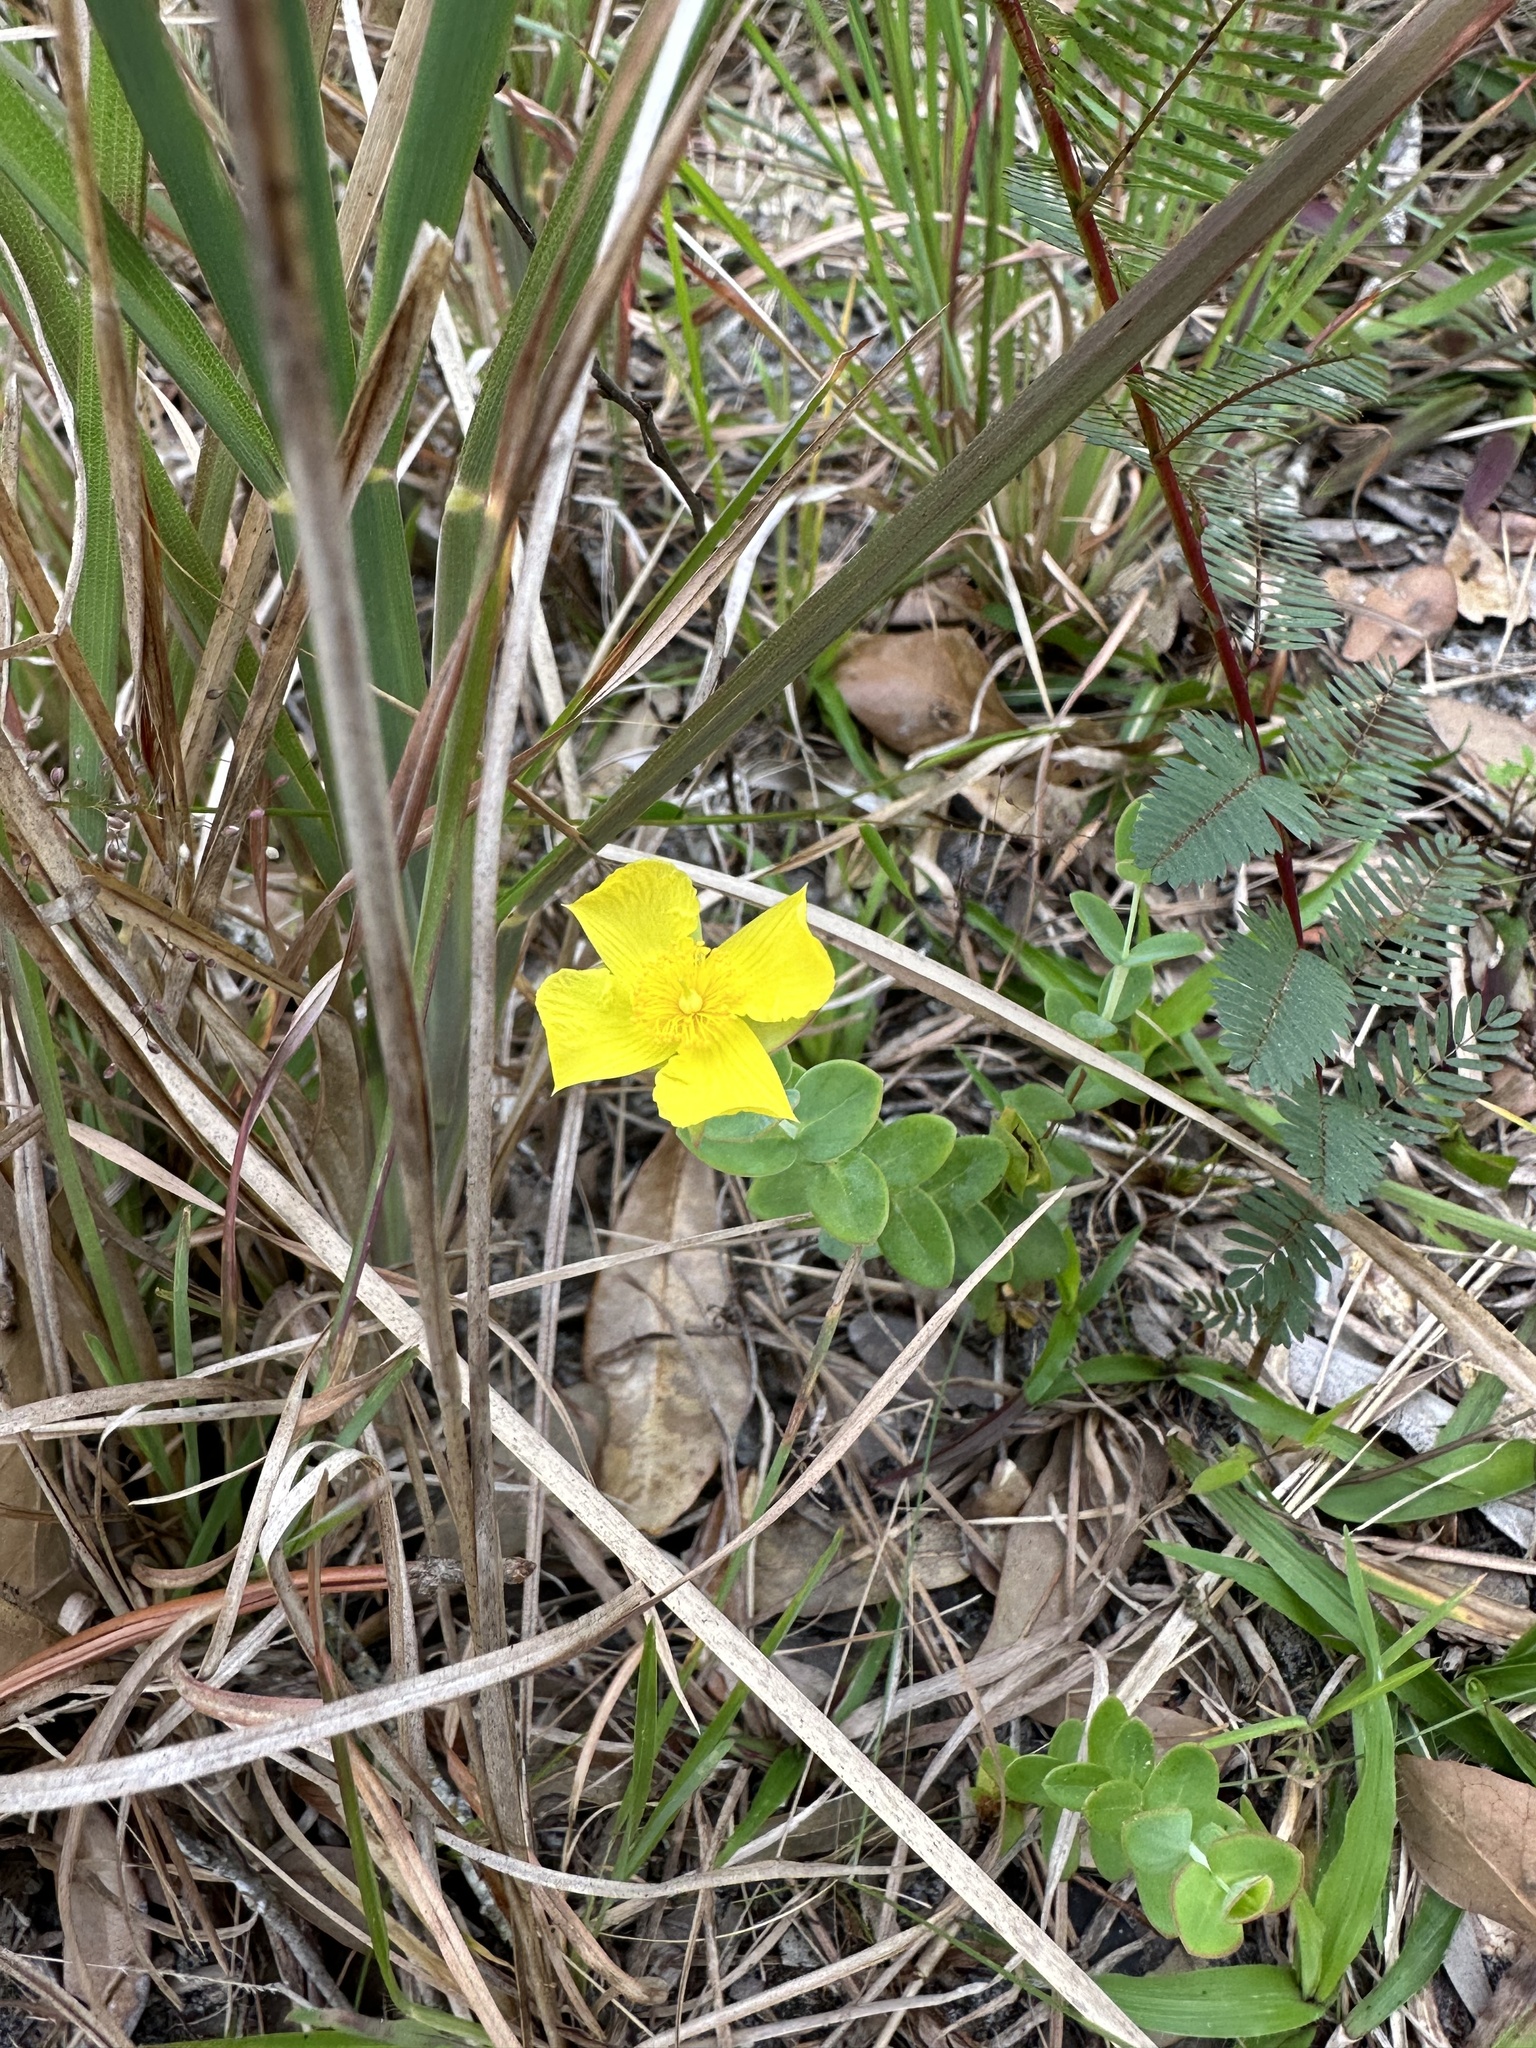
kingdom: Plantae
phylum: Tracheophyta
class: Magnoliopsida
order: Malpighiales
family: Hypericaceae
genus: Hypericum
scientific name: Hypericum tetrapetalum
